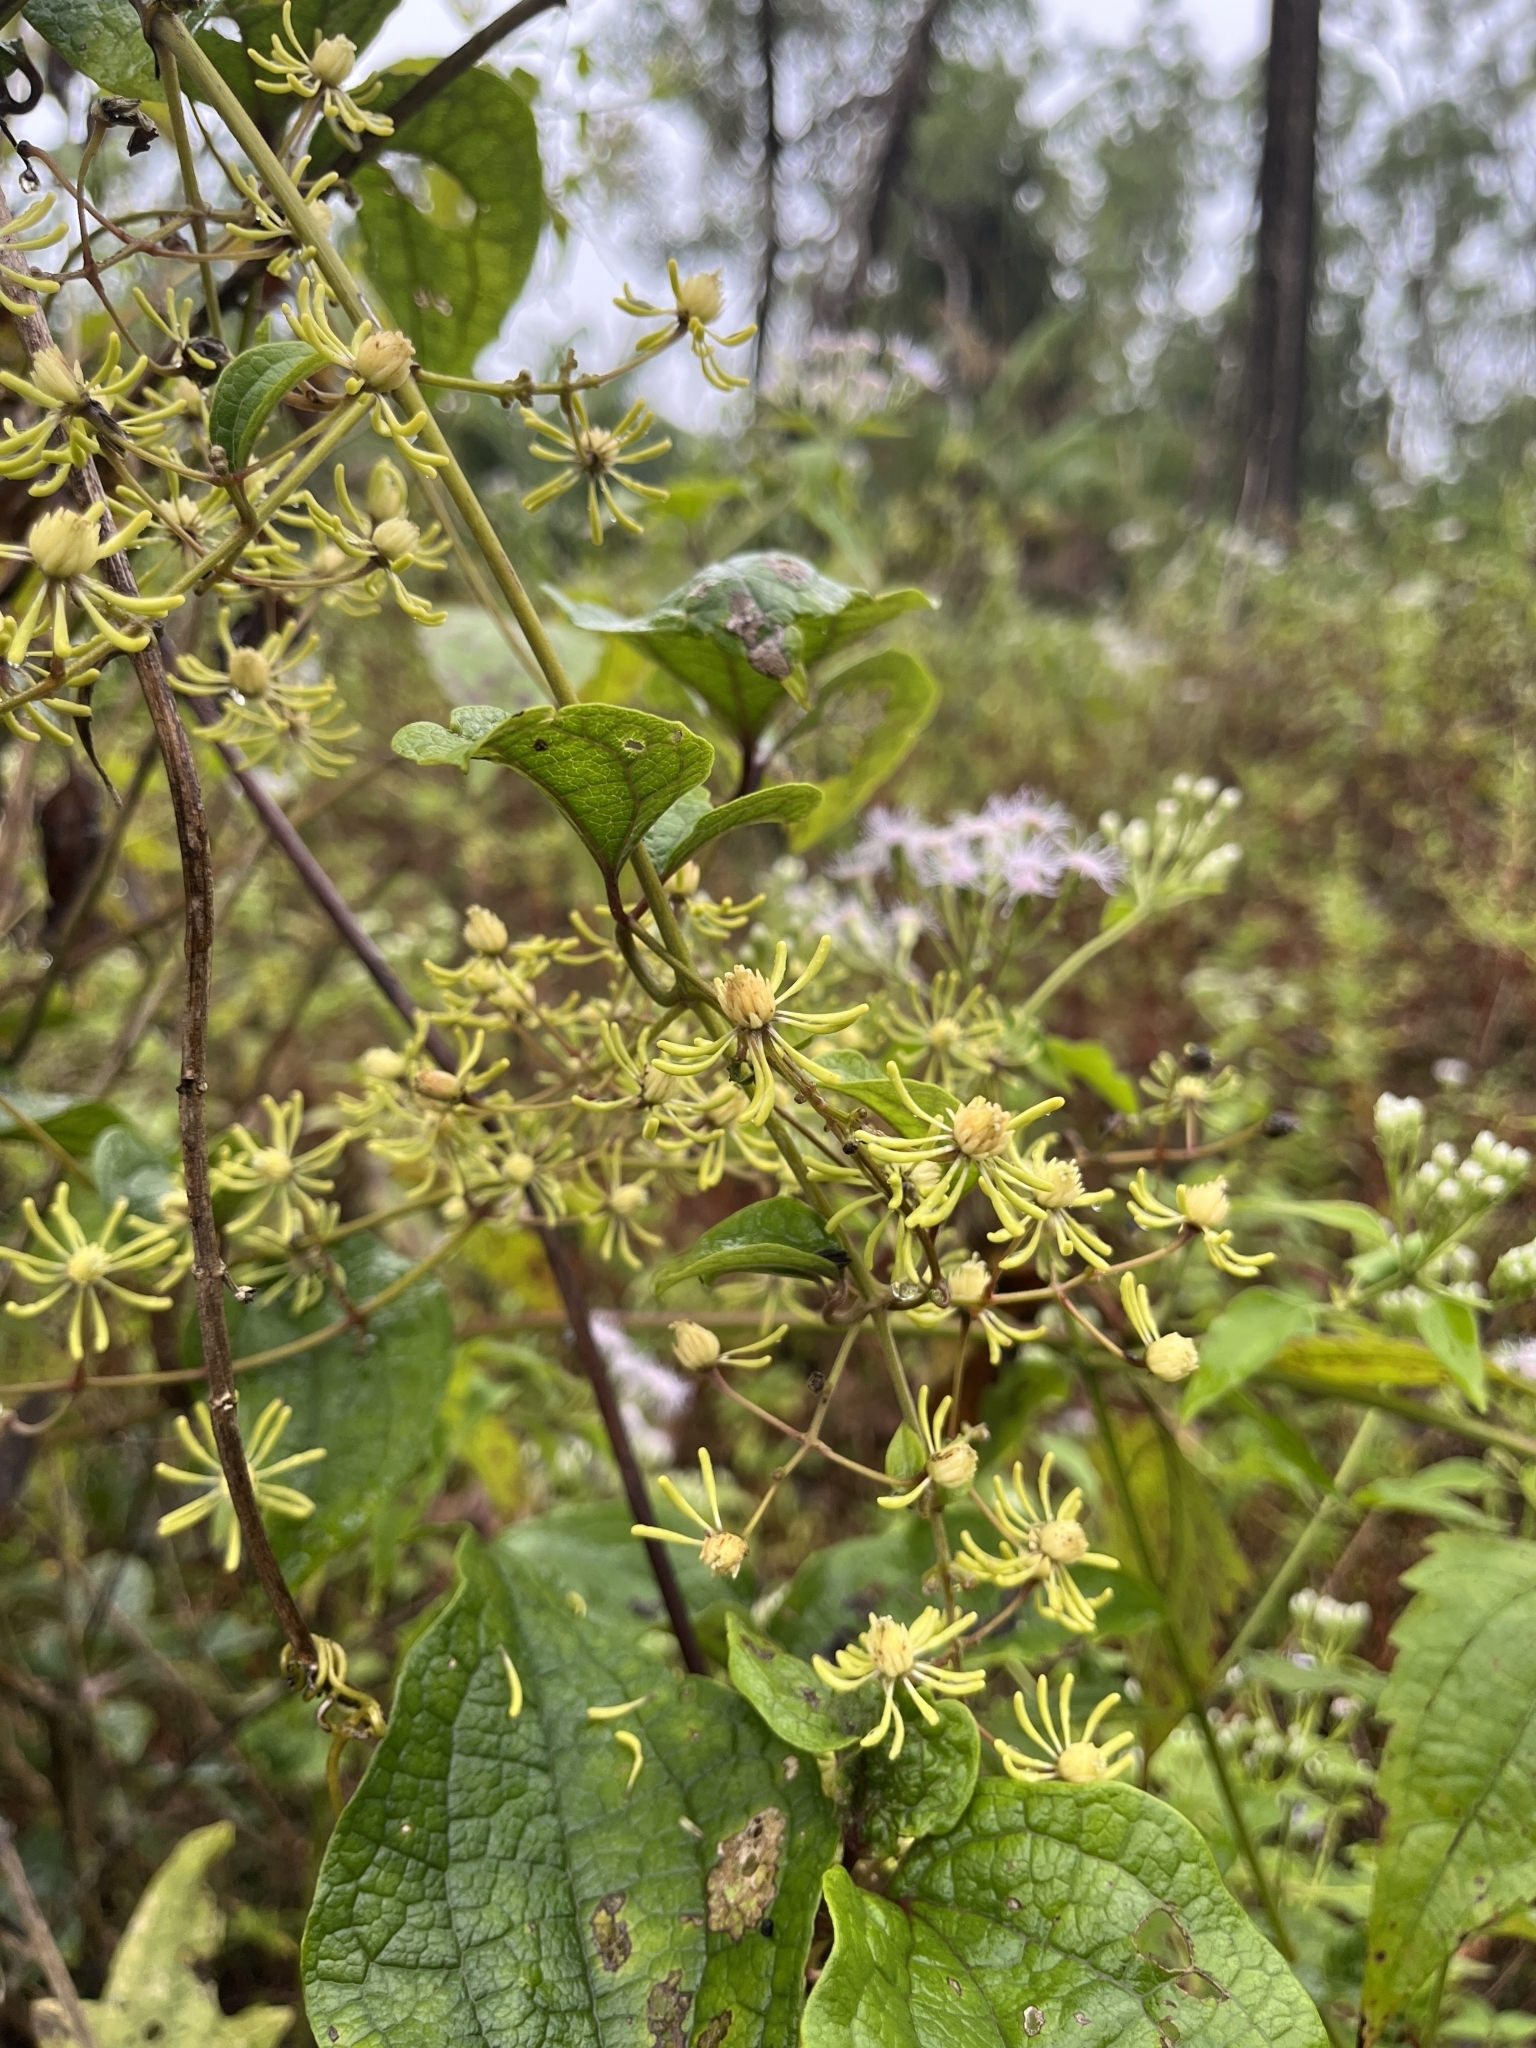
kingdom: Plantae
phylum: Tracheophyta
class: Magnoliopsida
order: Ranunculales
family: Ranunculaceae
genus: Clematis
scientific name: Clematis zeylanica
